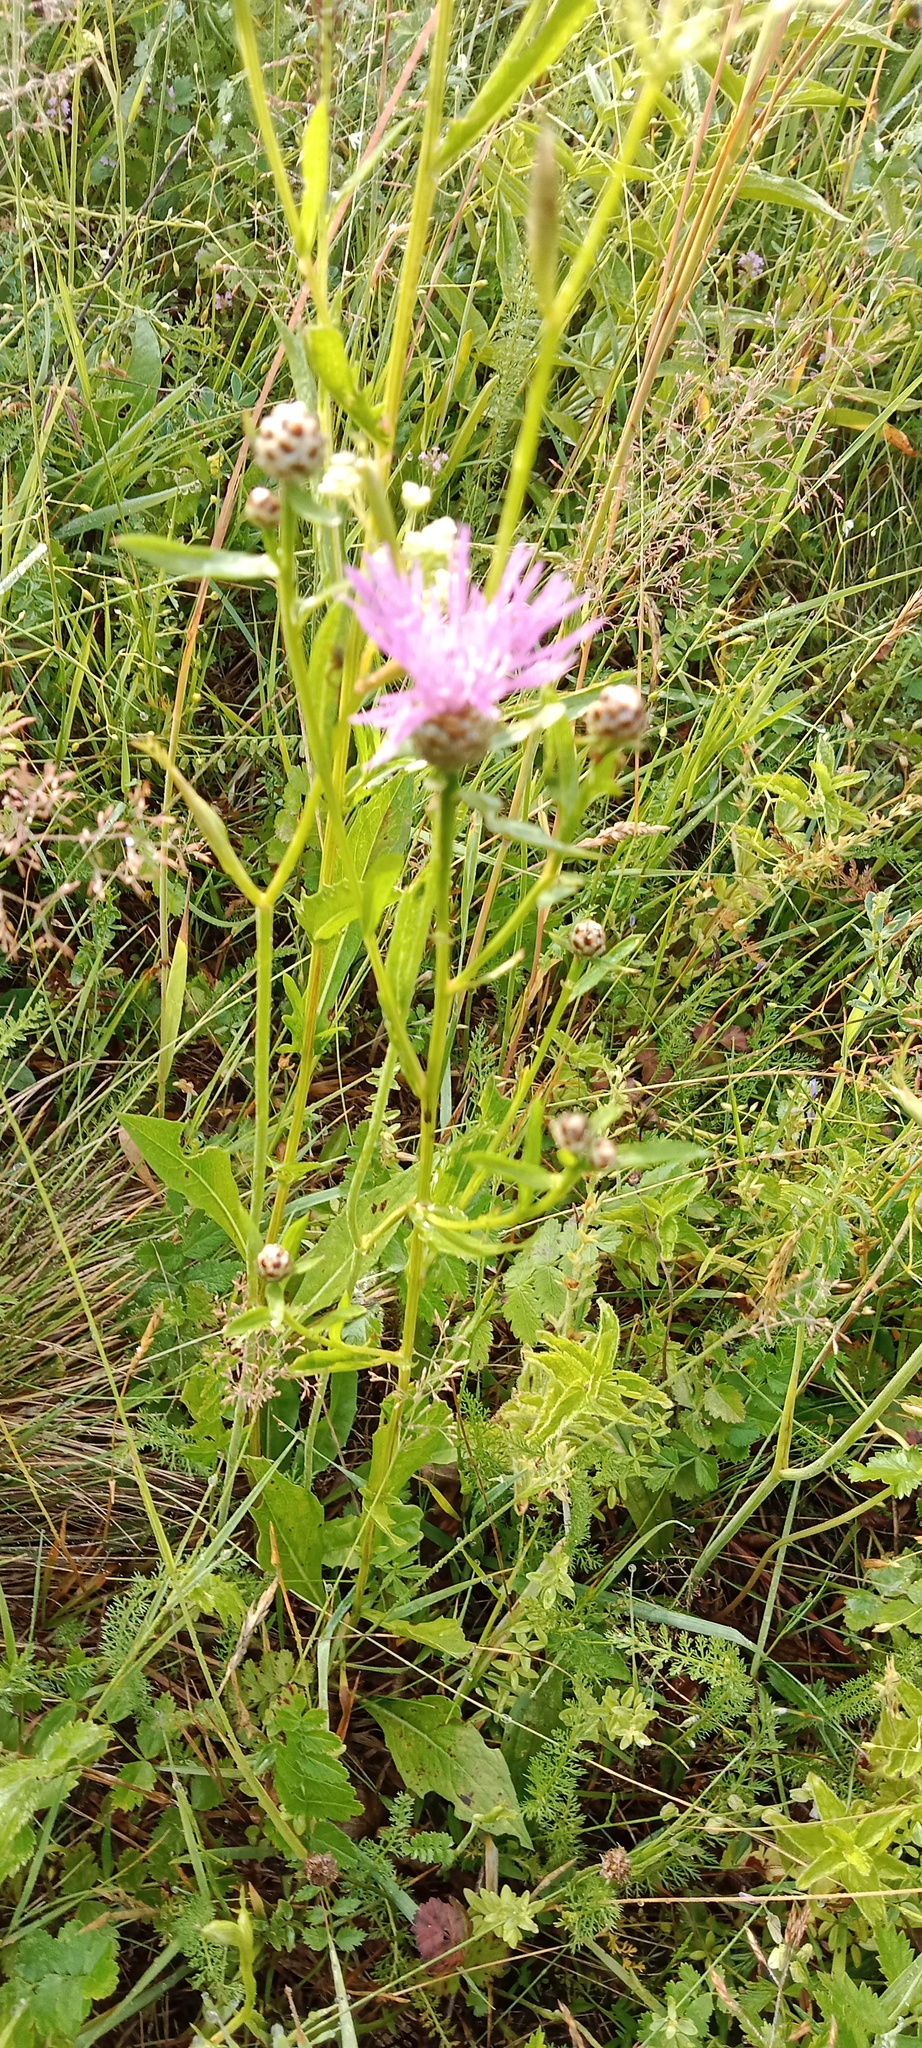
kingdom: Plantae
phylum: Tracheophyta
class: Magnoliopsida
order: Asterales
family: Asteraceae
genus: Centaurea
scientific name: Centaurea jacea
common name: Brown knapweed
